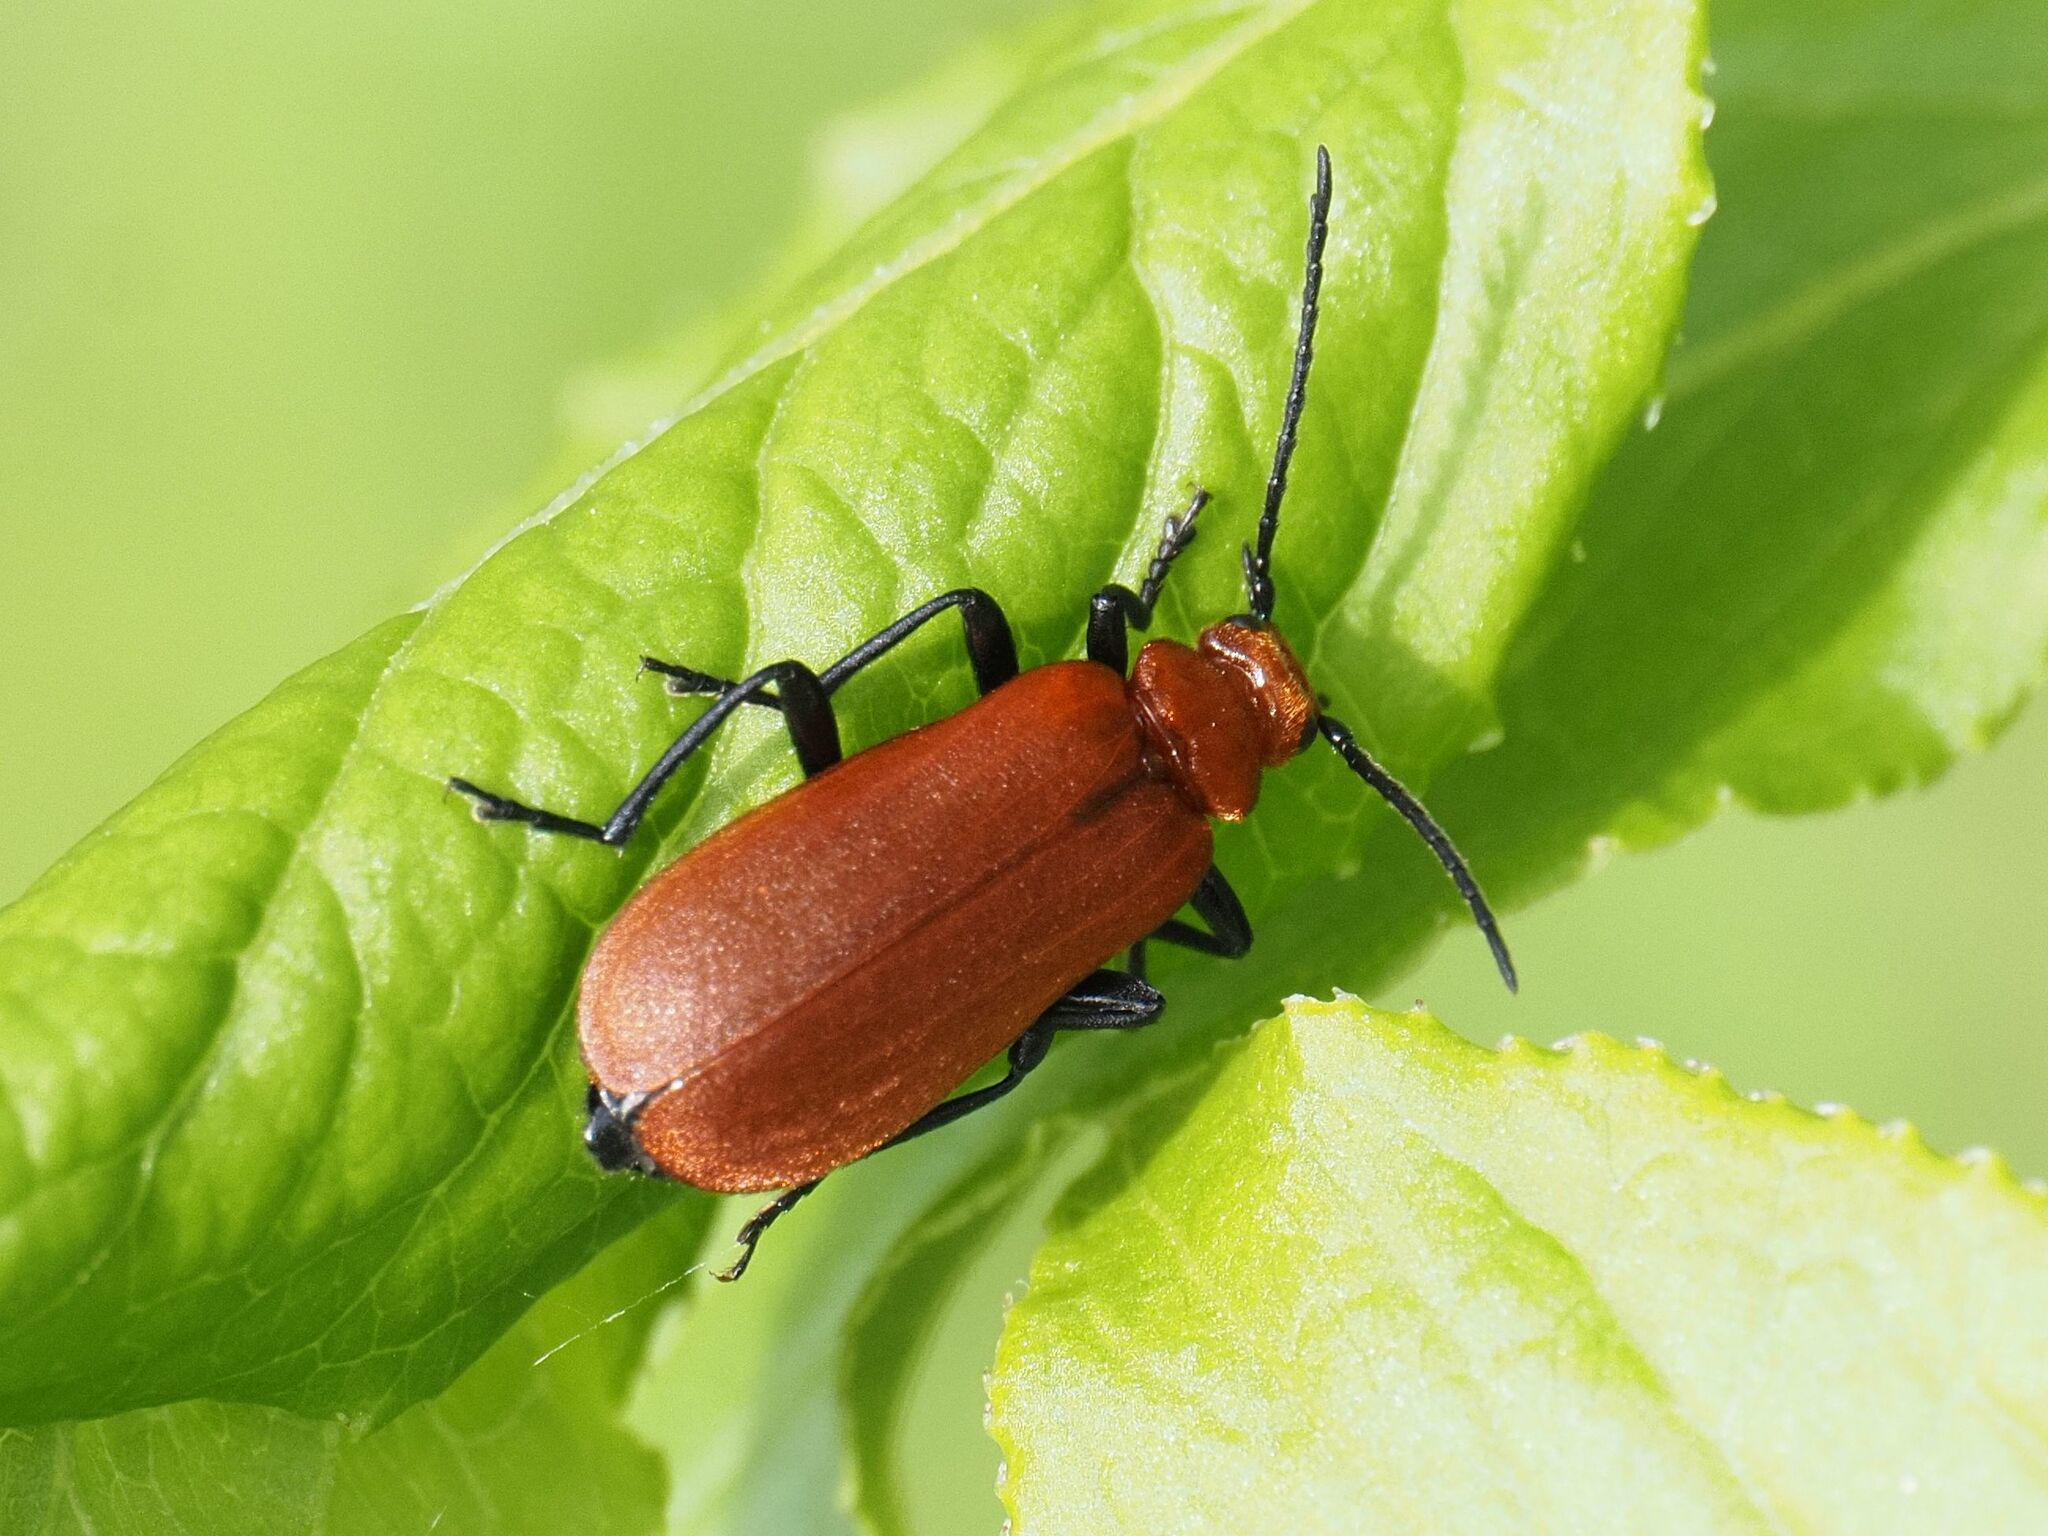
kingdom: Animalia
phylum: Arthropoda
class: Insecta
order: Coleoptera
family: Pyrochroidae
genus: Pyrochroa
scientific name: Pyrochroa serraticornis
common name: Red-headed cardinal beetle
